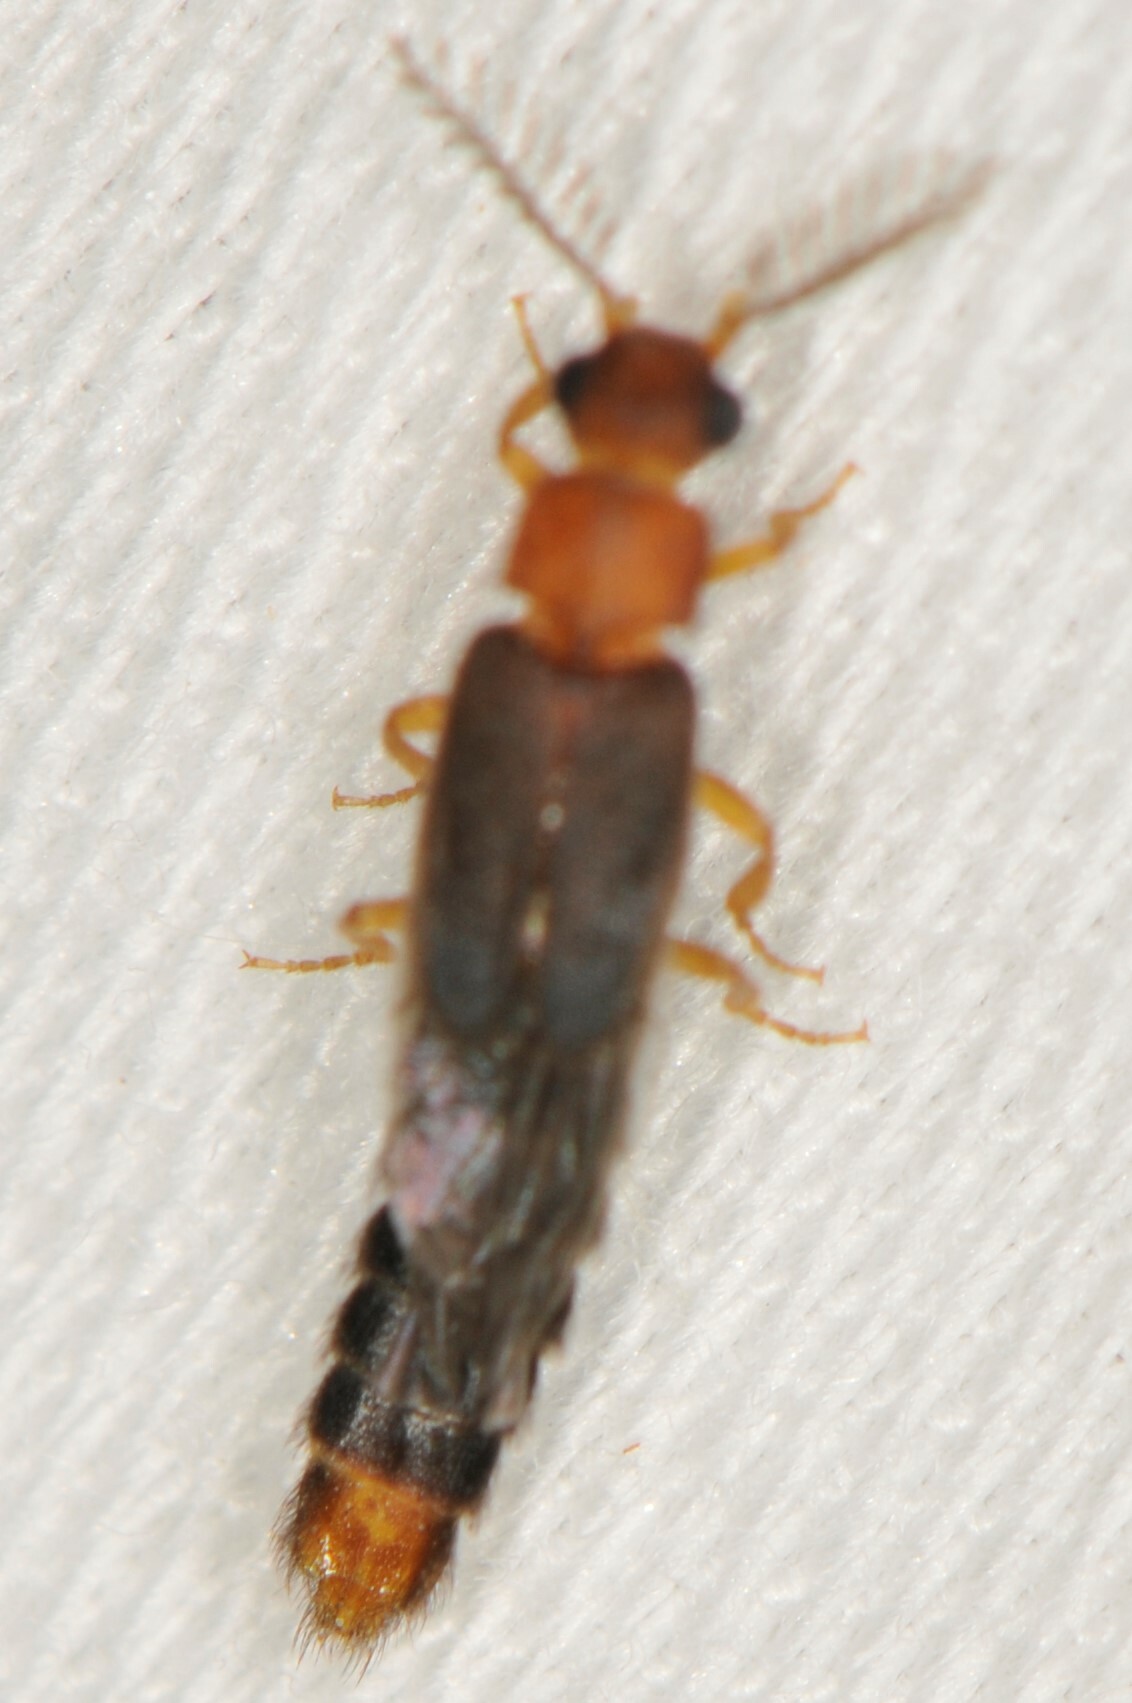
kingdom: Animalia
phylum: Arthropoda
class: Insecta
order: Coleoptera
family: Phengodidae
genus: Distremocephalus
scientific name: Distremocephalus opaculus
